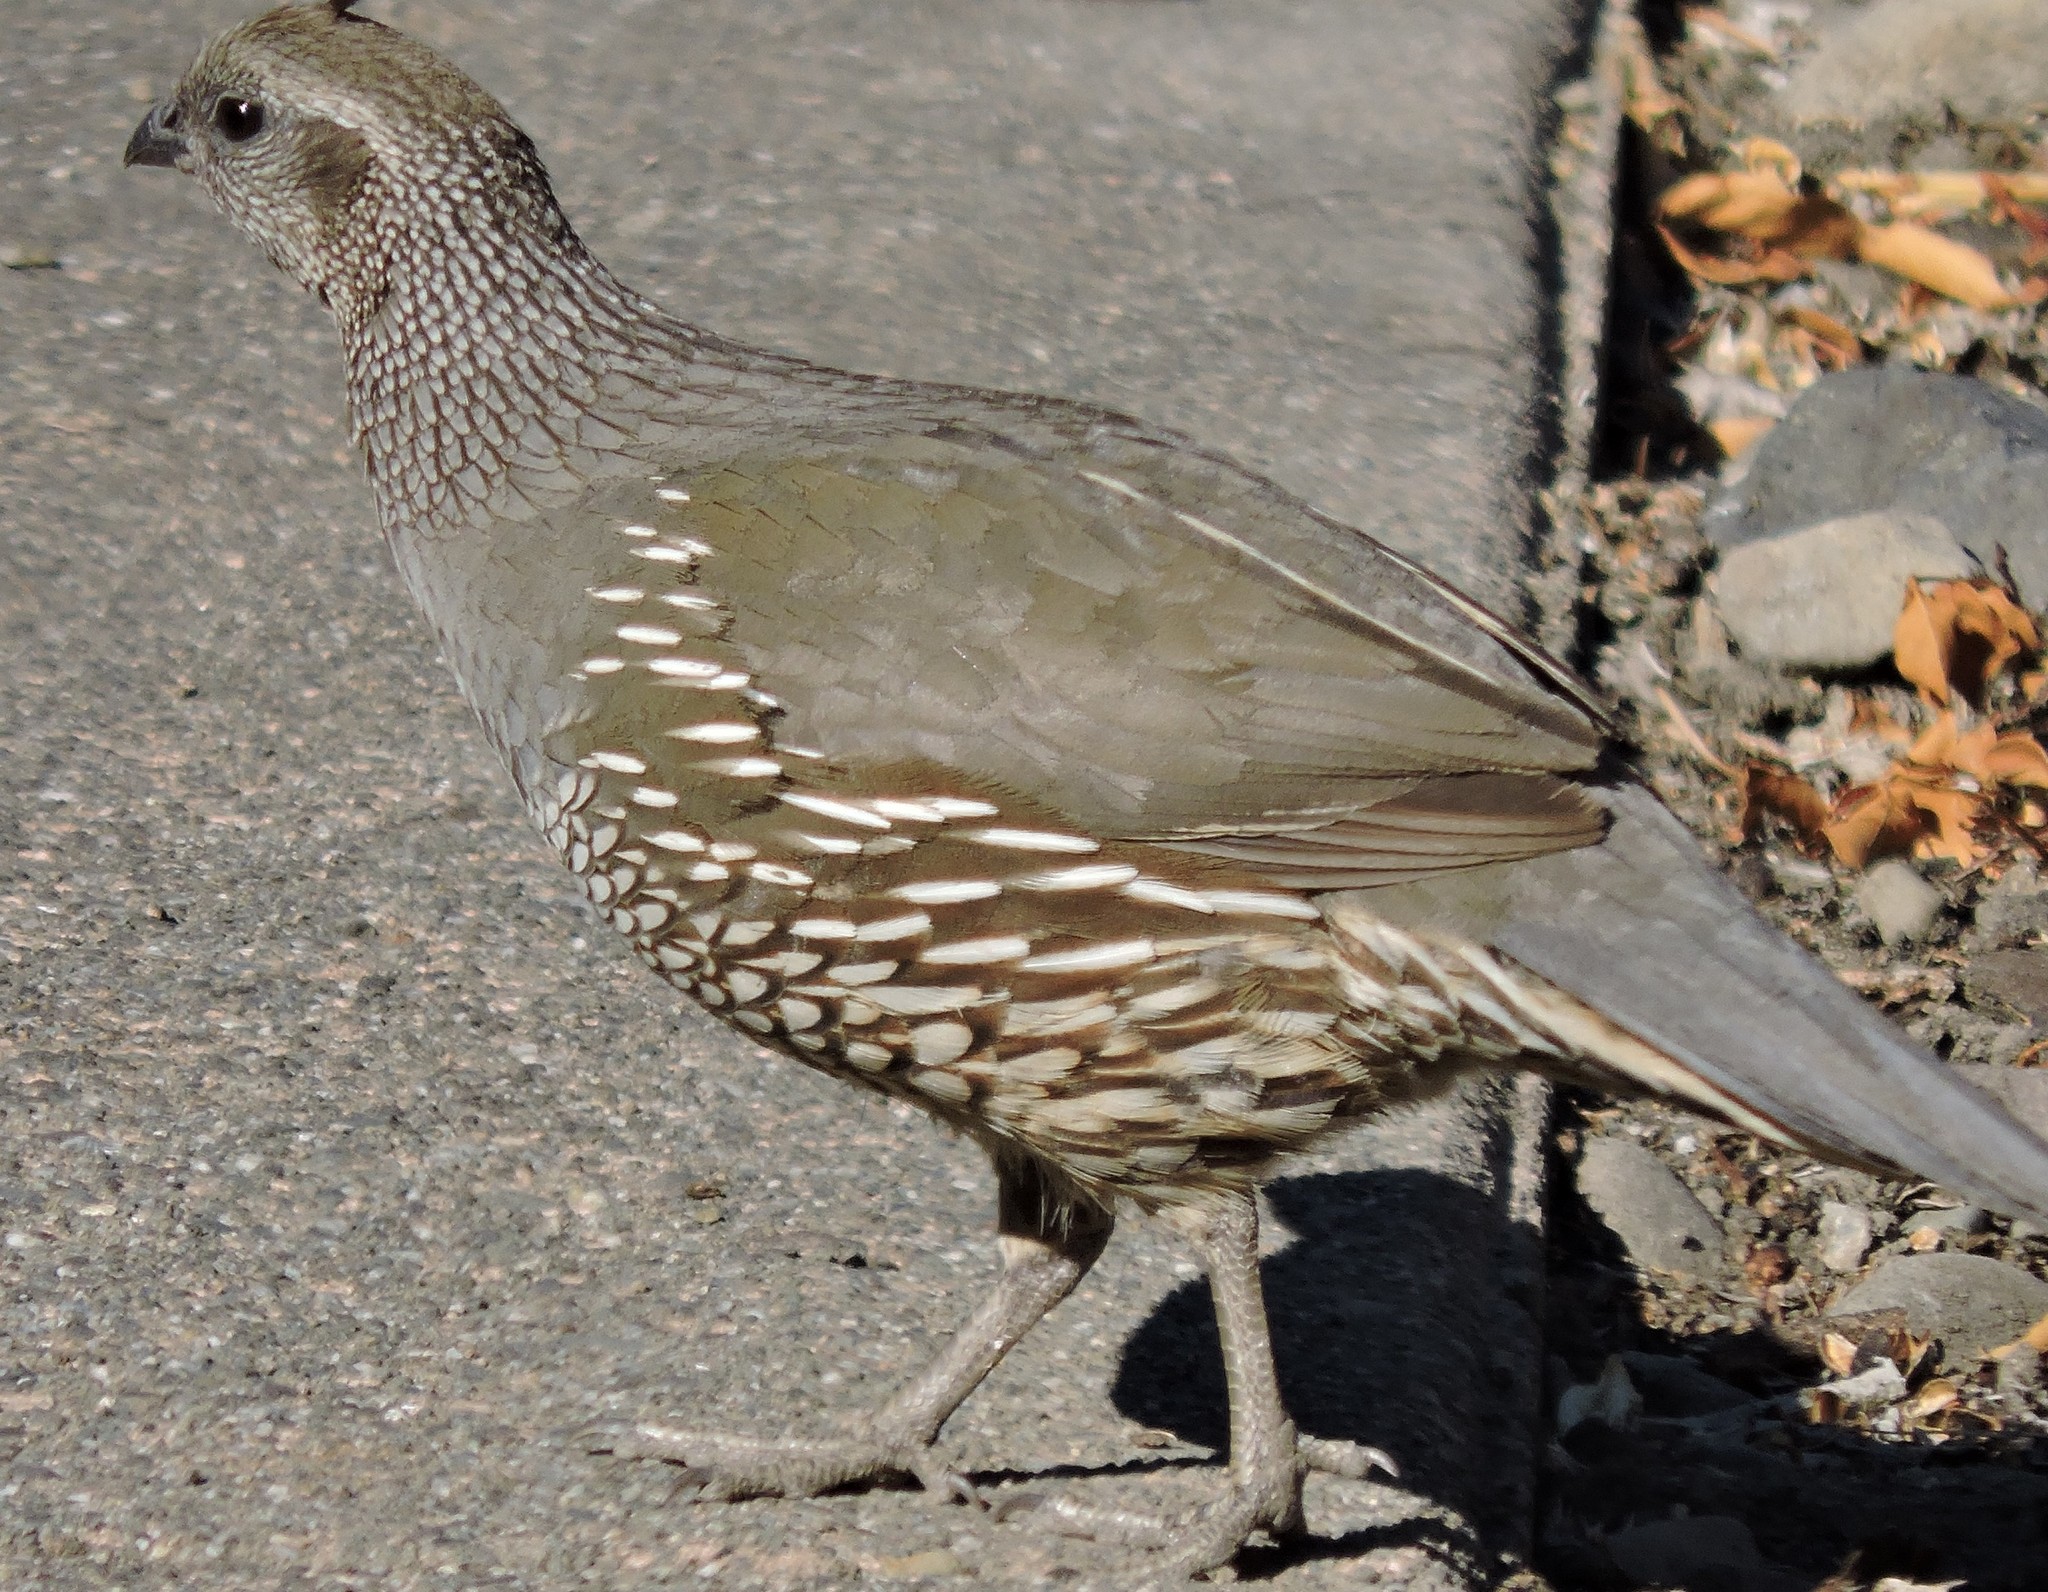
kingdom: Animalia
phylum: Chordata
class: Aves
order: Galliformes
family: Odontophoridae
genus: Callipepla
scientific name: Callipepla californica
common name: California quail
